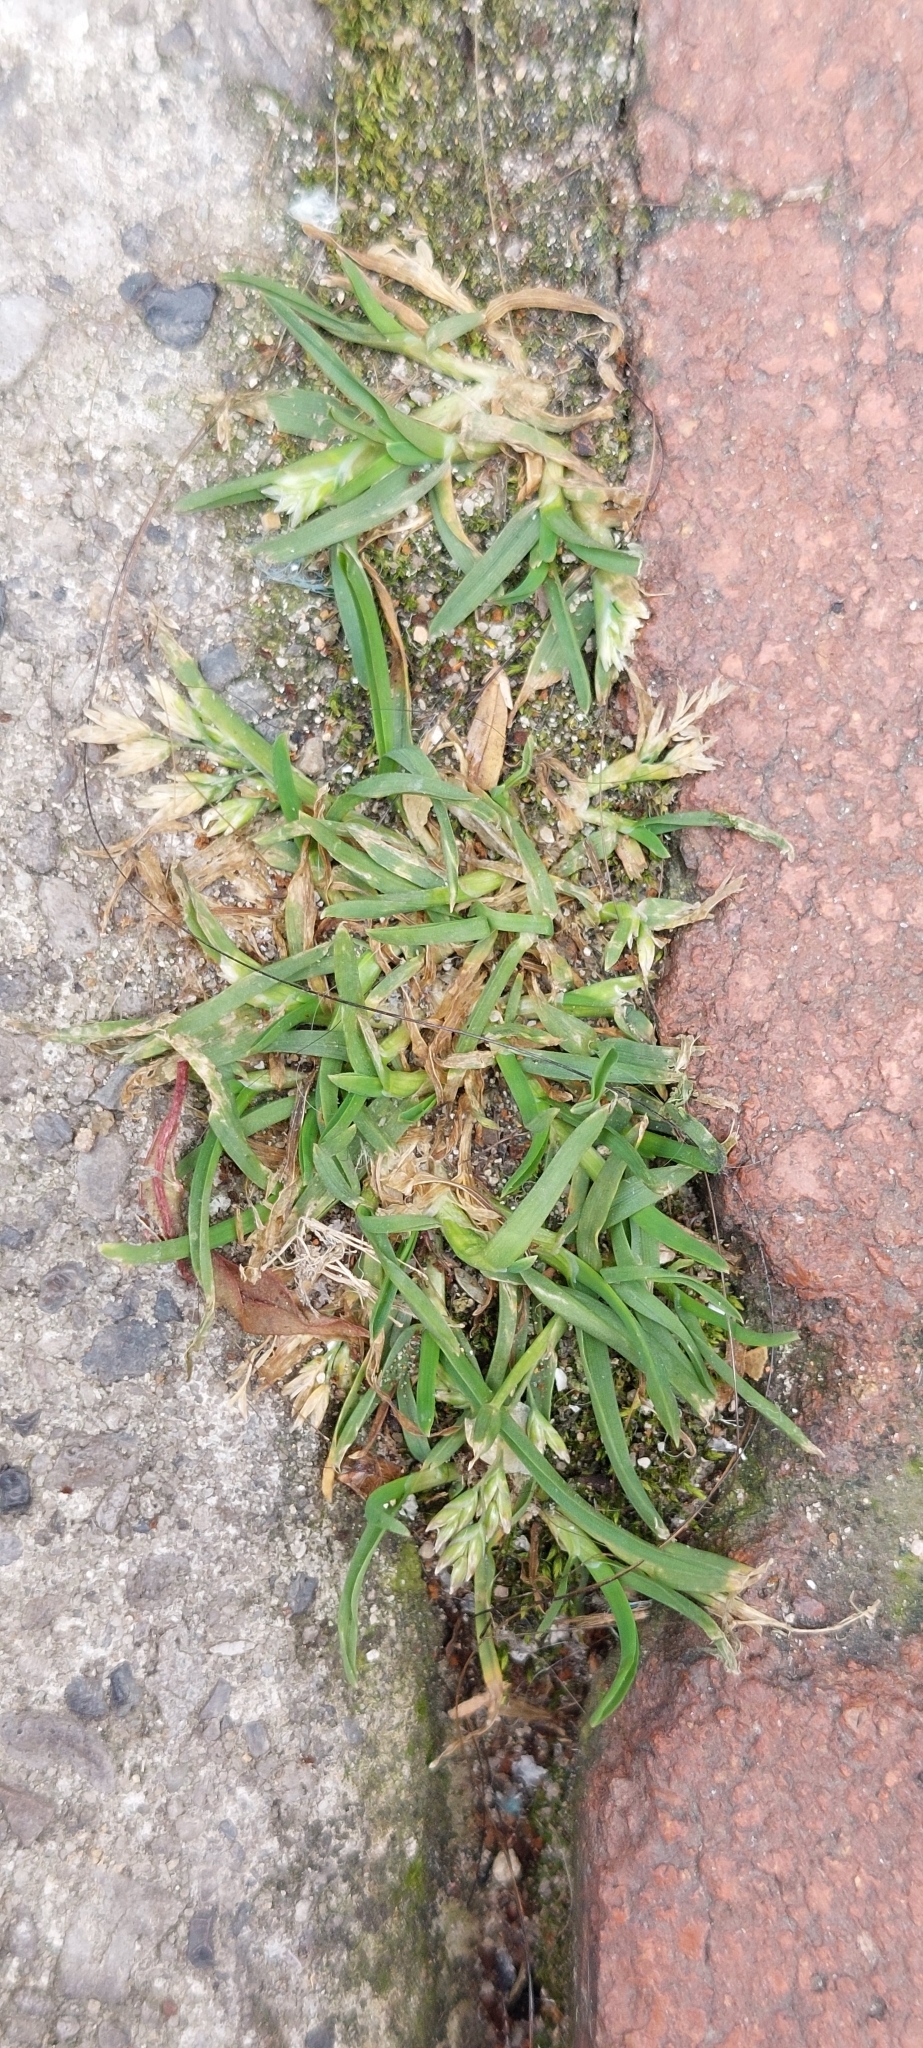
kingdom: Plantae
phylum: Tracheophyta
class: Liliopsida
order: Poales
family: Poaceae
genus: Poa
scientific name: Poa annua
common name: Annual bluegrass
